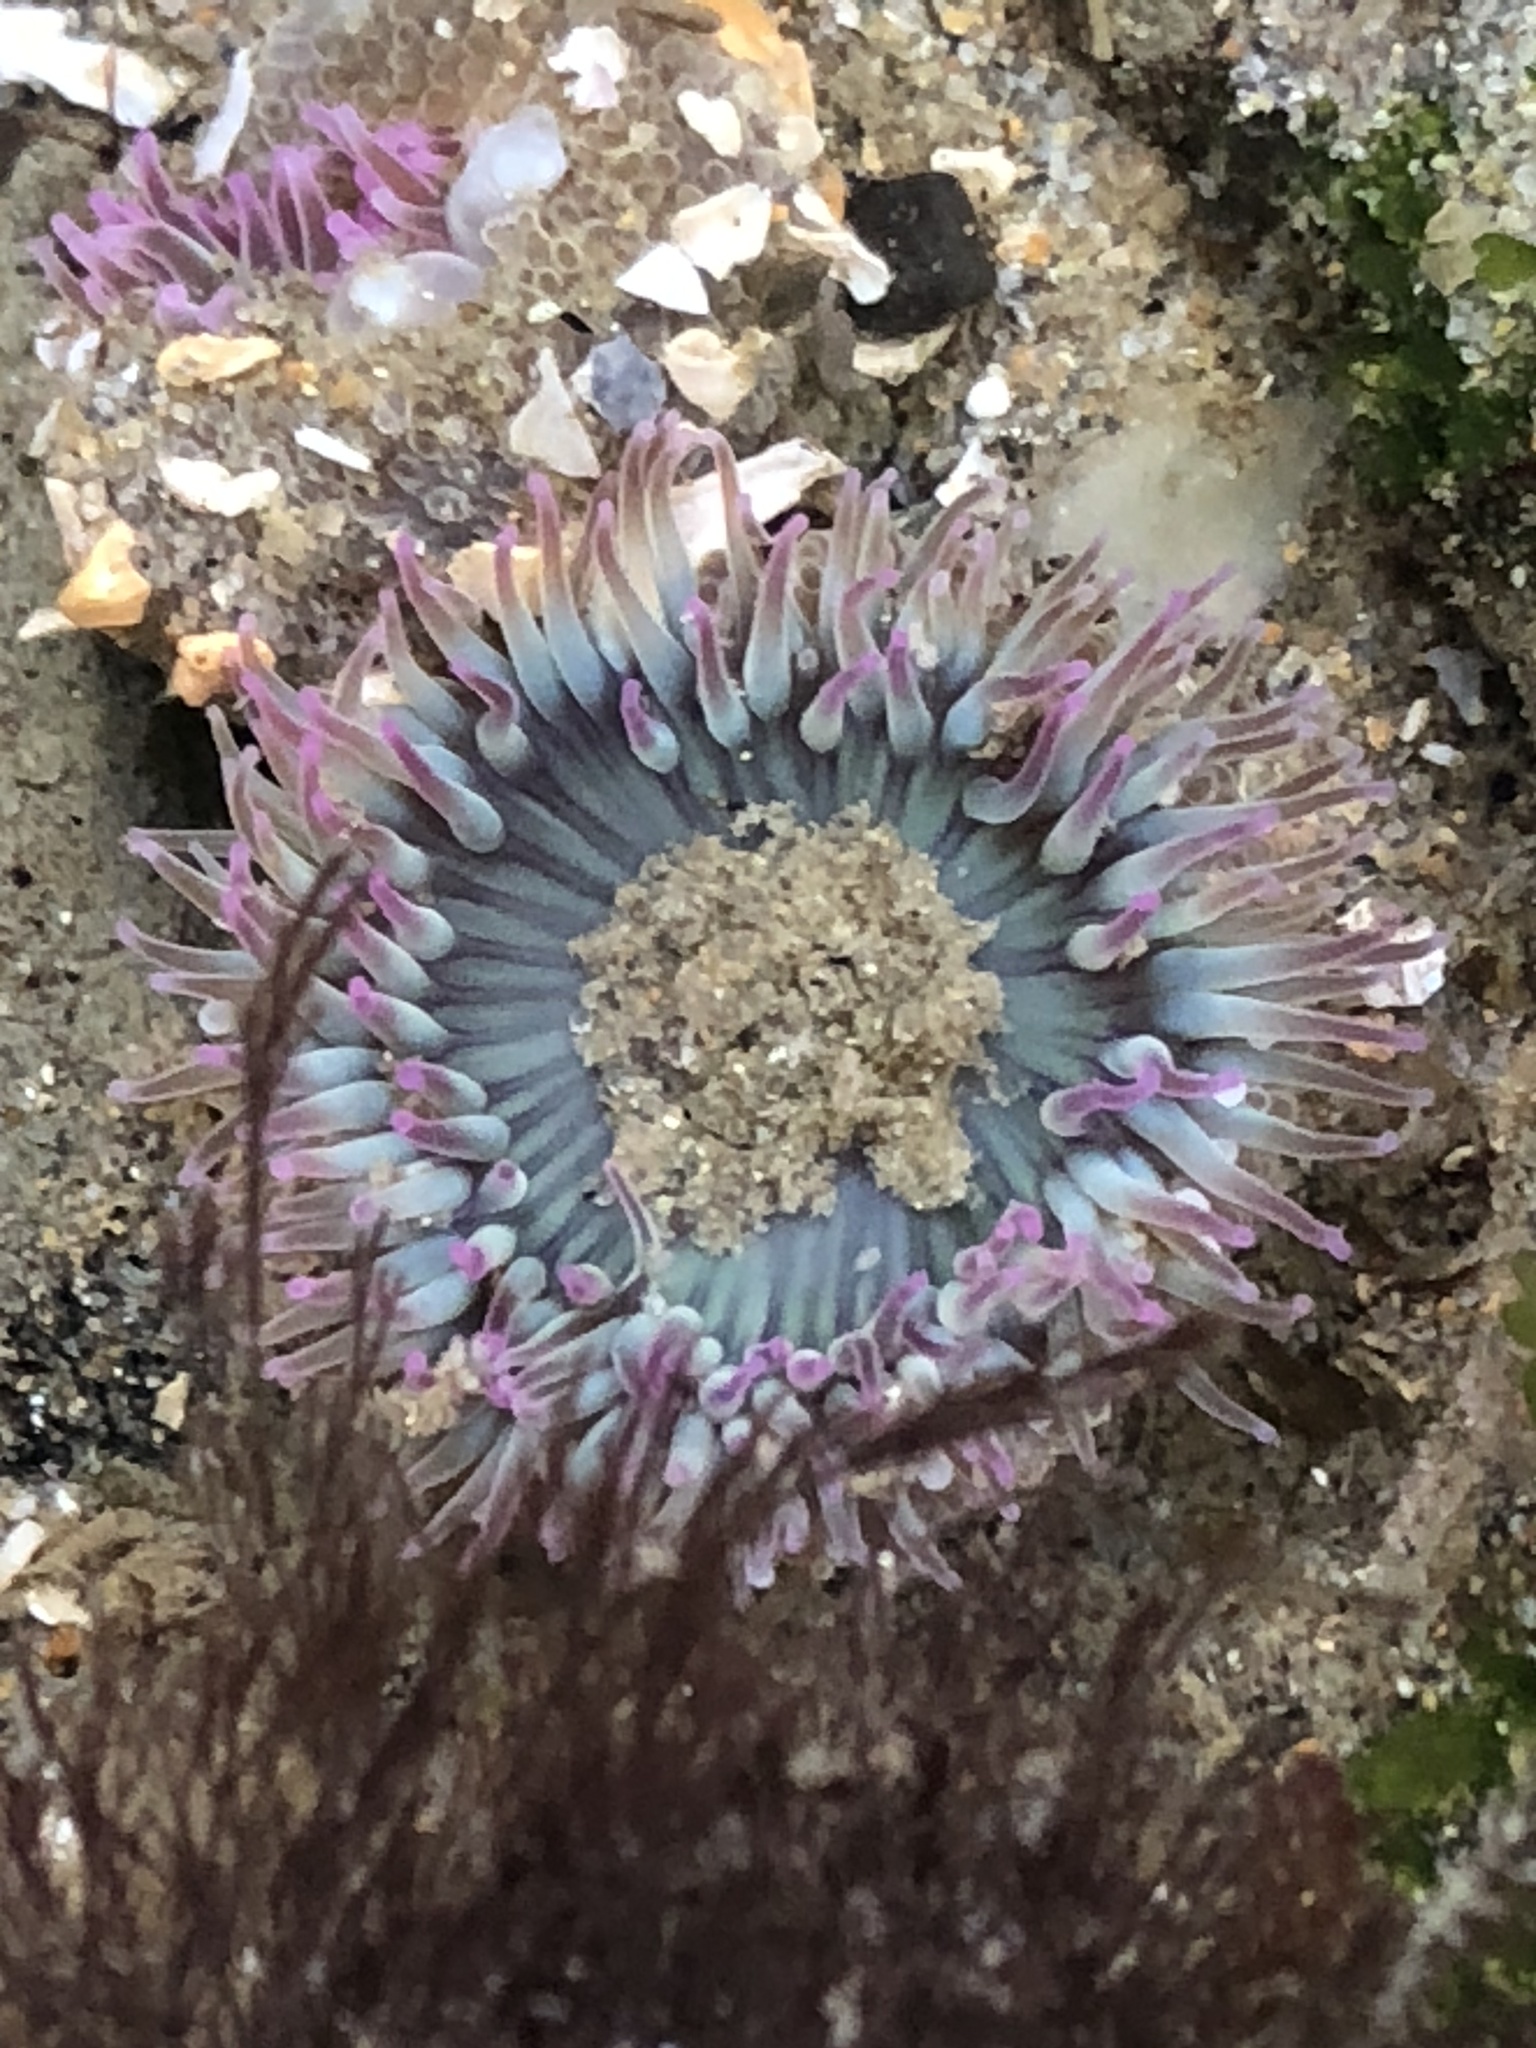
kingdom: Animalia
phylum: Cnidaria
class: Anthozoa
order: Actiniaria
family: Actiniidae
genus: Anthopleura
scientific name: Anthopleura elegantissima
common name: Clonal anemone
